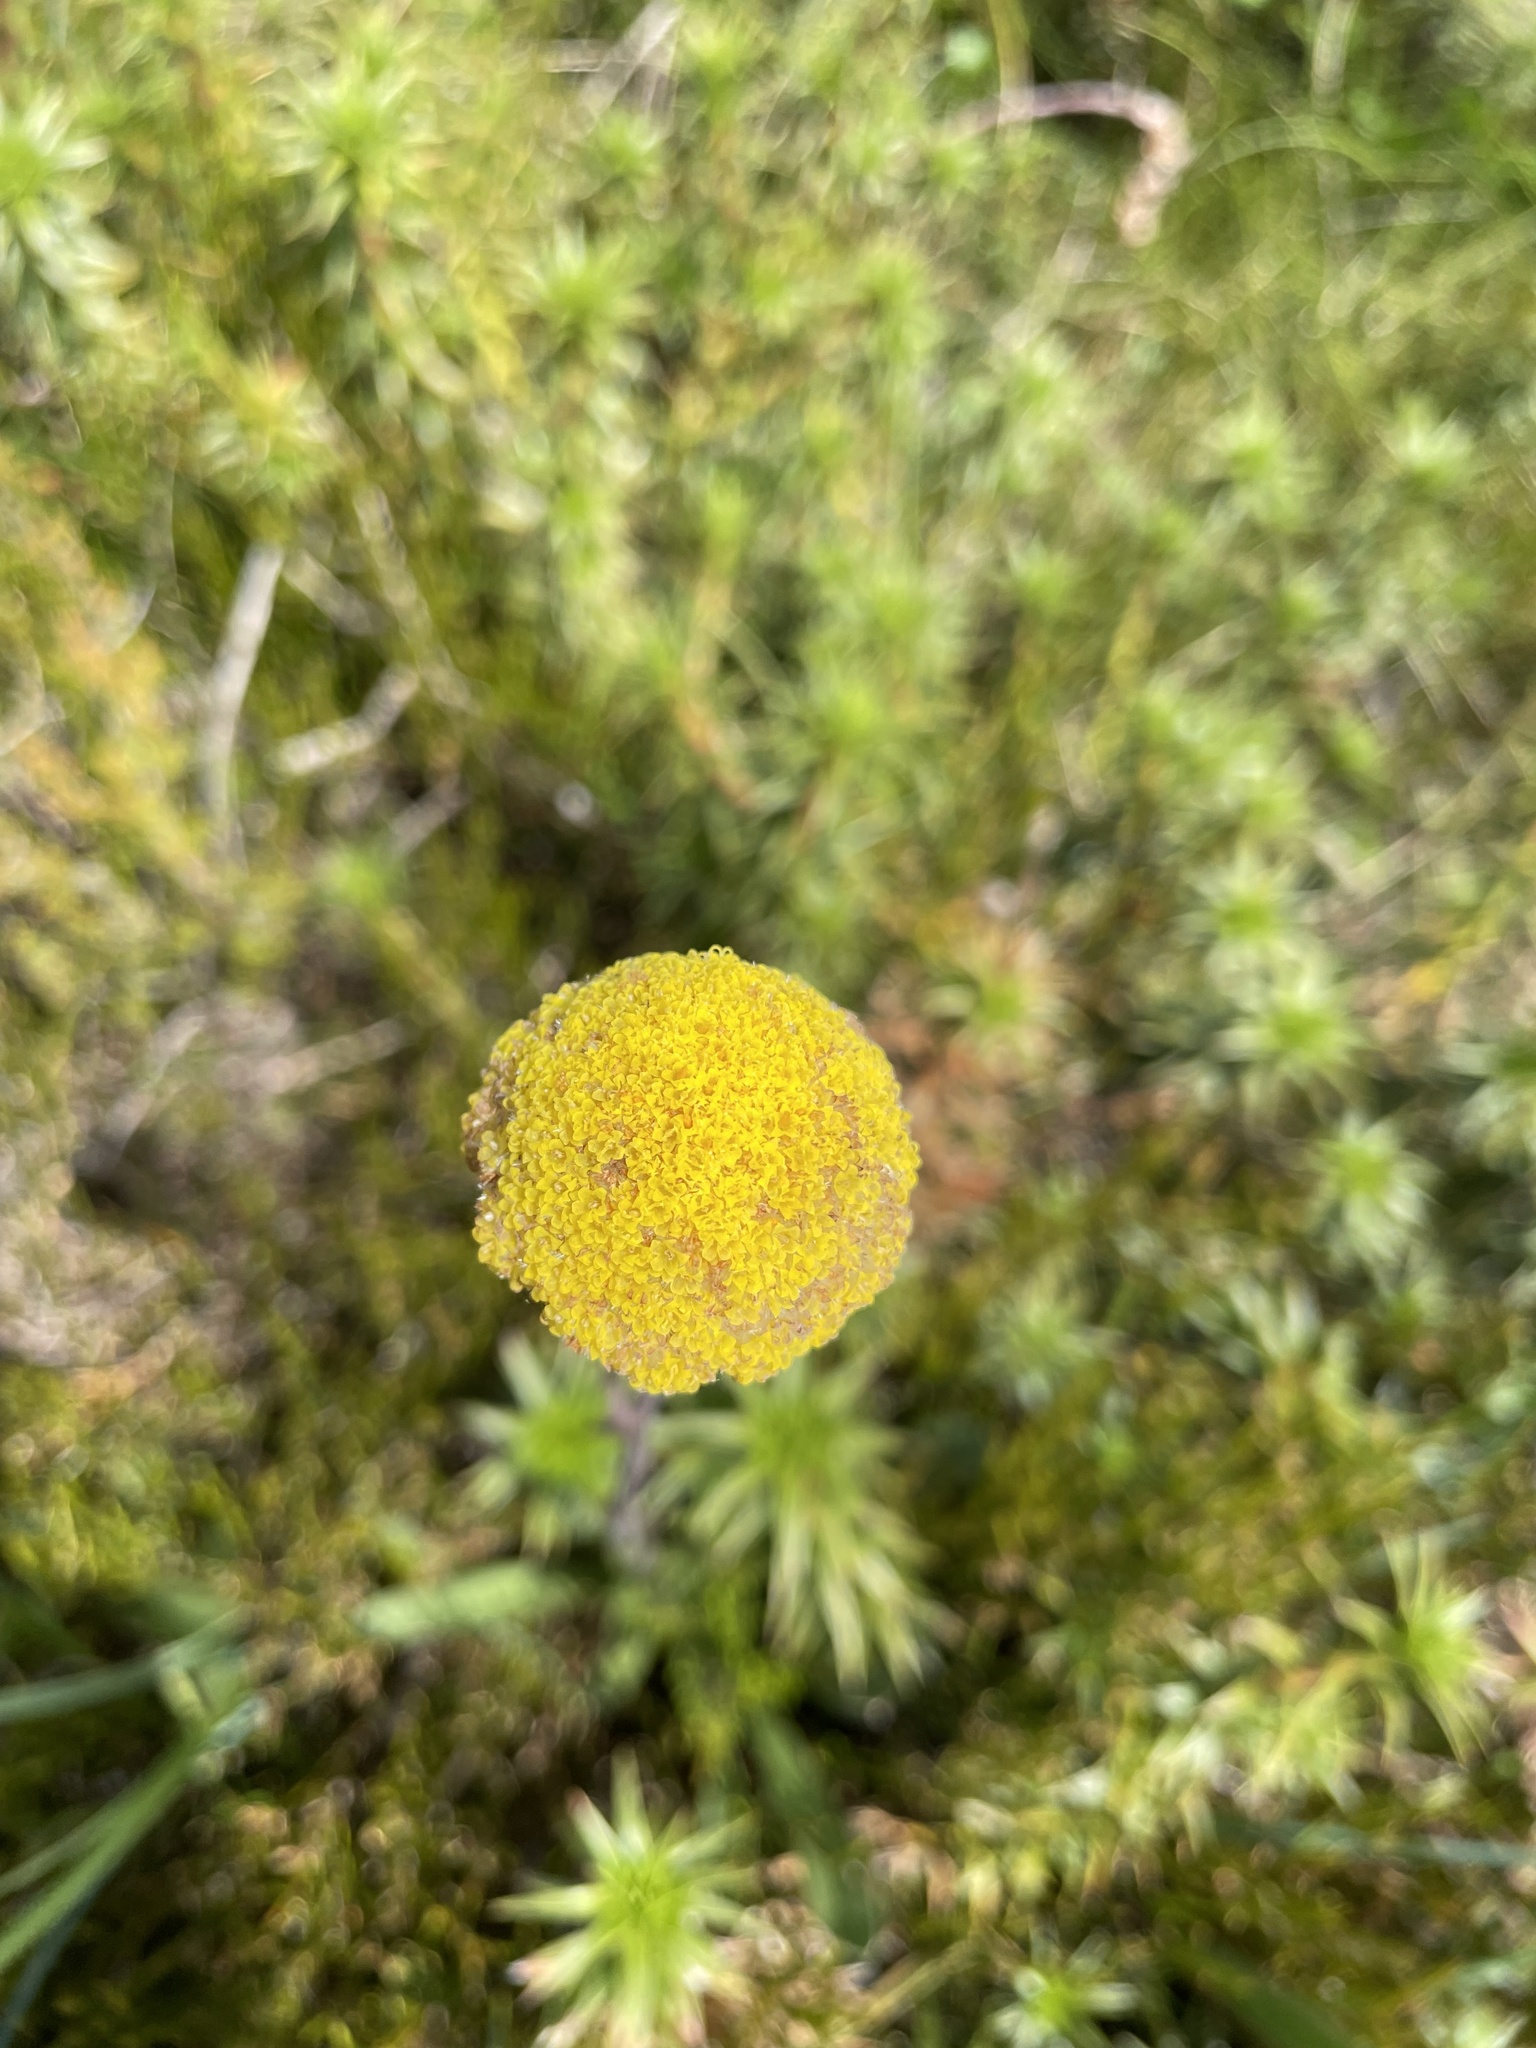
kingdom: Plantae
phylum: Tracheophyta
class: Magnoliopsida
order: Asterales
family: Asteraceae
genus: Craspedia
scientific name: Craspedia
